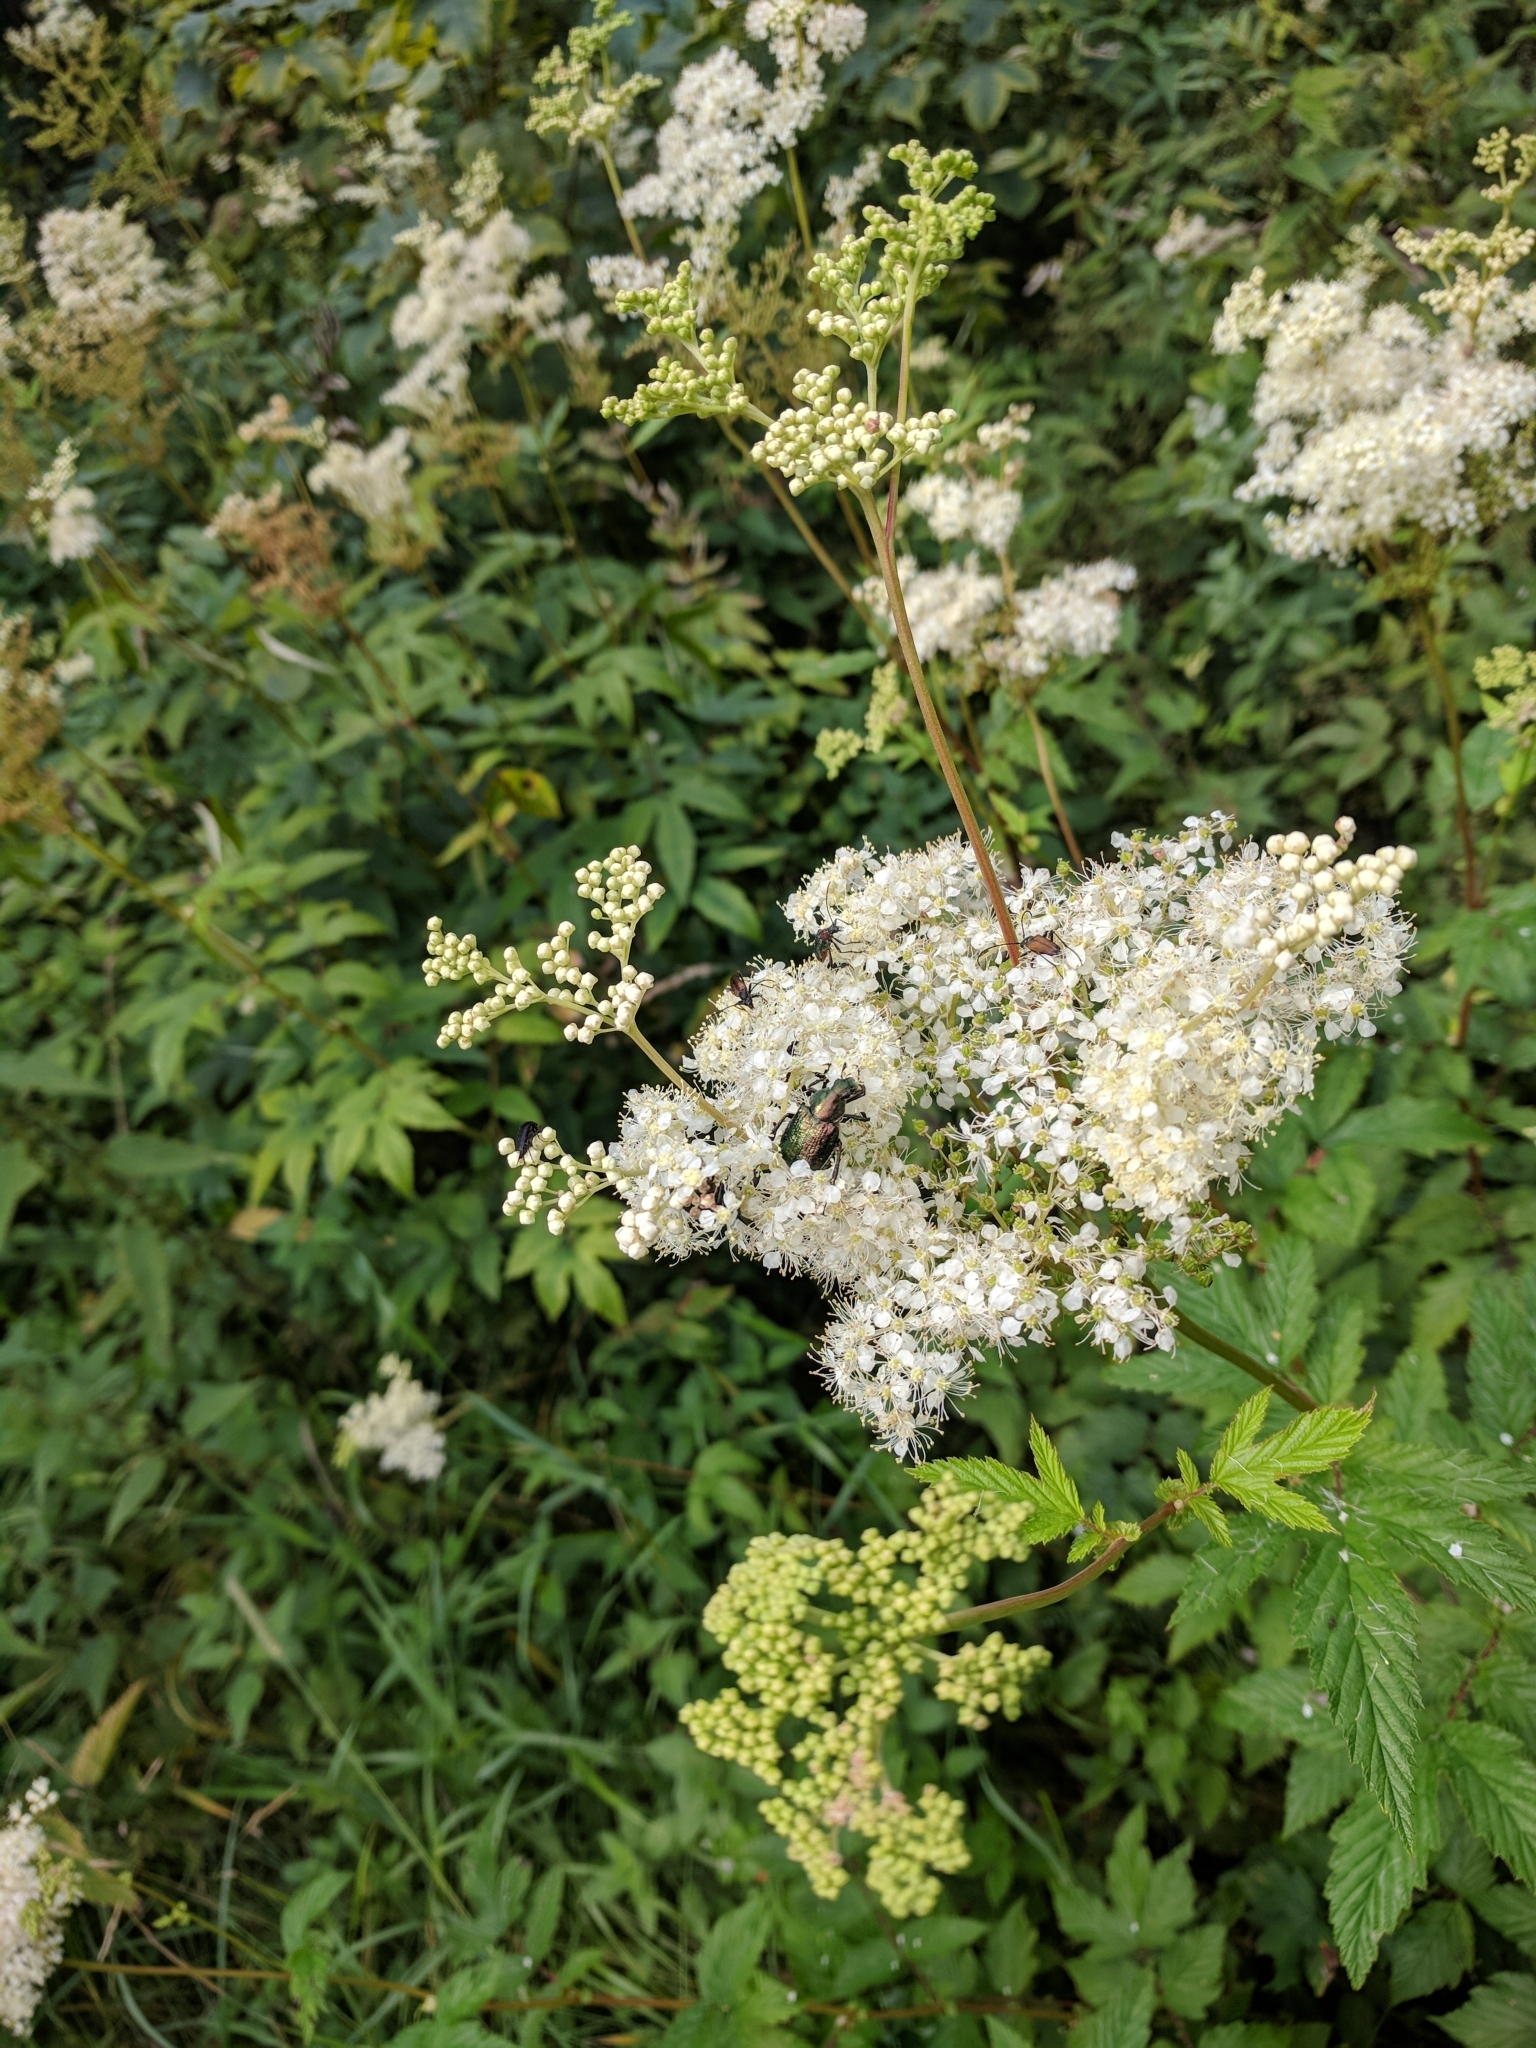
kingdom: Animalia
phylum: Arthropoda
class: Insecta
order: Coleoptera
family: Scarabaeidae
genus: Gnorimus
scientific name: Gnorimus nobilis
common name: Noble chafer
